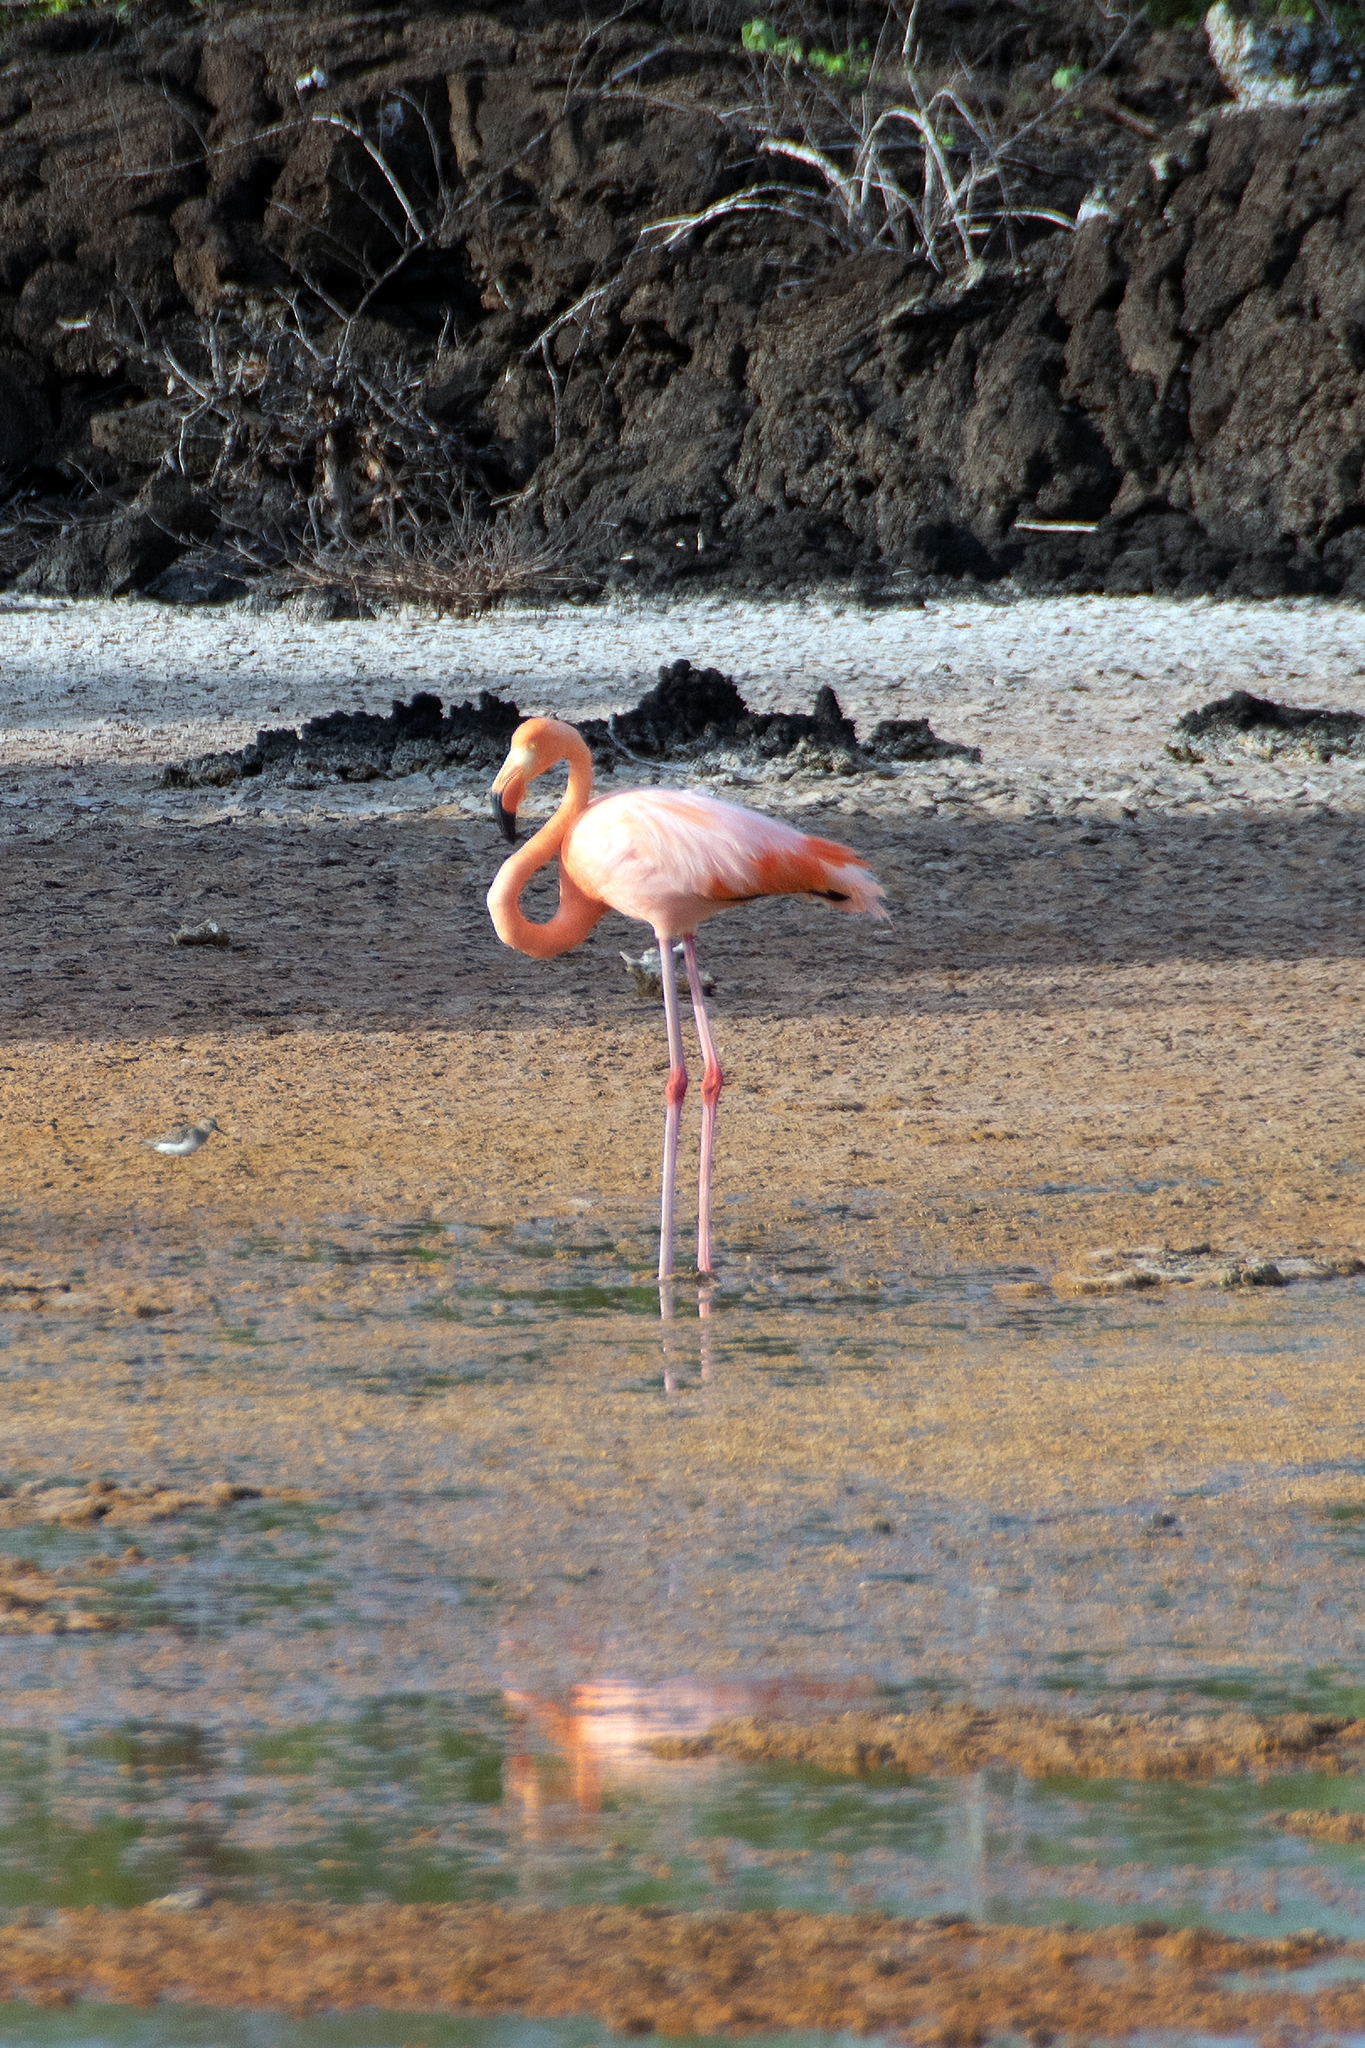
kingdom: Animalia
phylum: Chordata
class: Aves
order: Phoenicopteriformes
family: Phoenicopteridae
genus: Phoenicopterus
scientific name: Phoenicopterus ruber
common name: American flamingo
